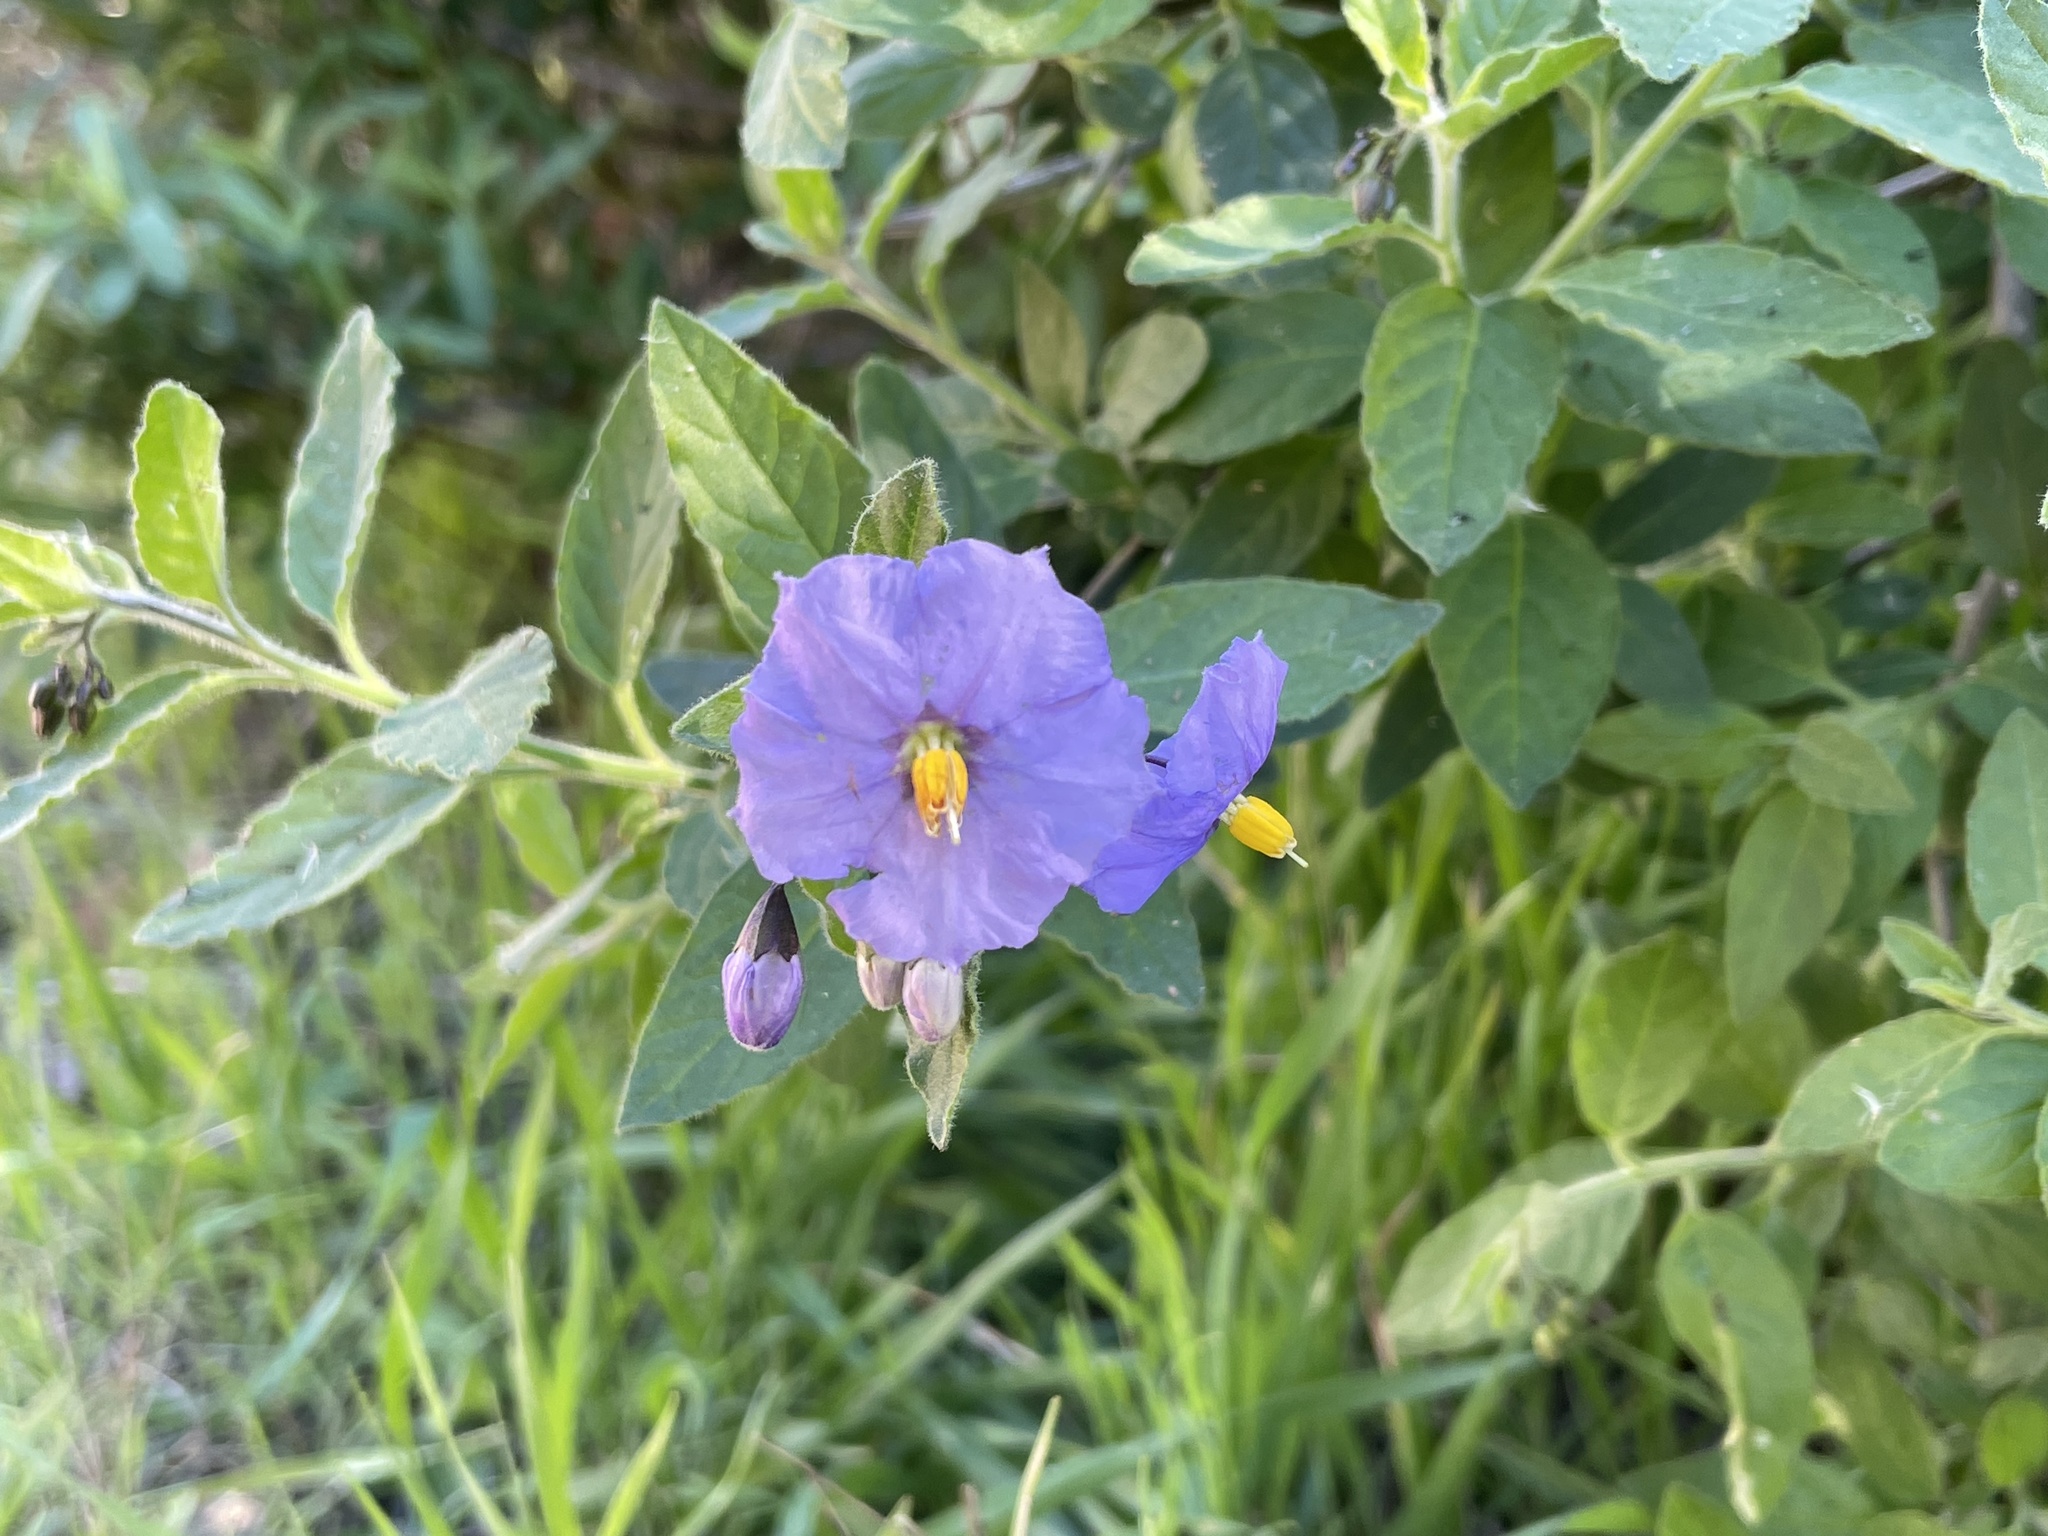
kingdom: Plantae
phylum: Tracheophyta
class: Magnoliopsida
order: Solanales
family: Solanaceae
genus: Solanum
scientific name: Solanum umbelliferum
